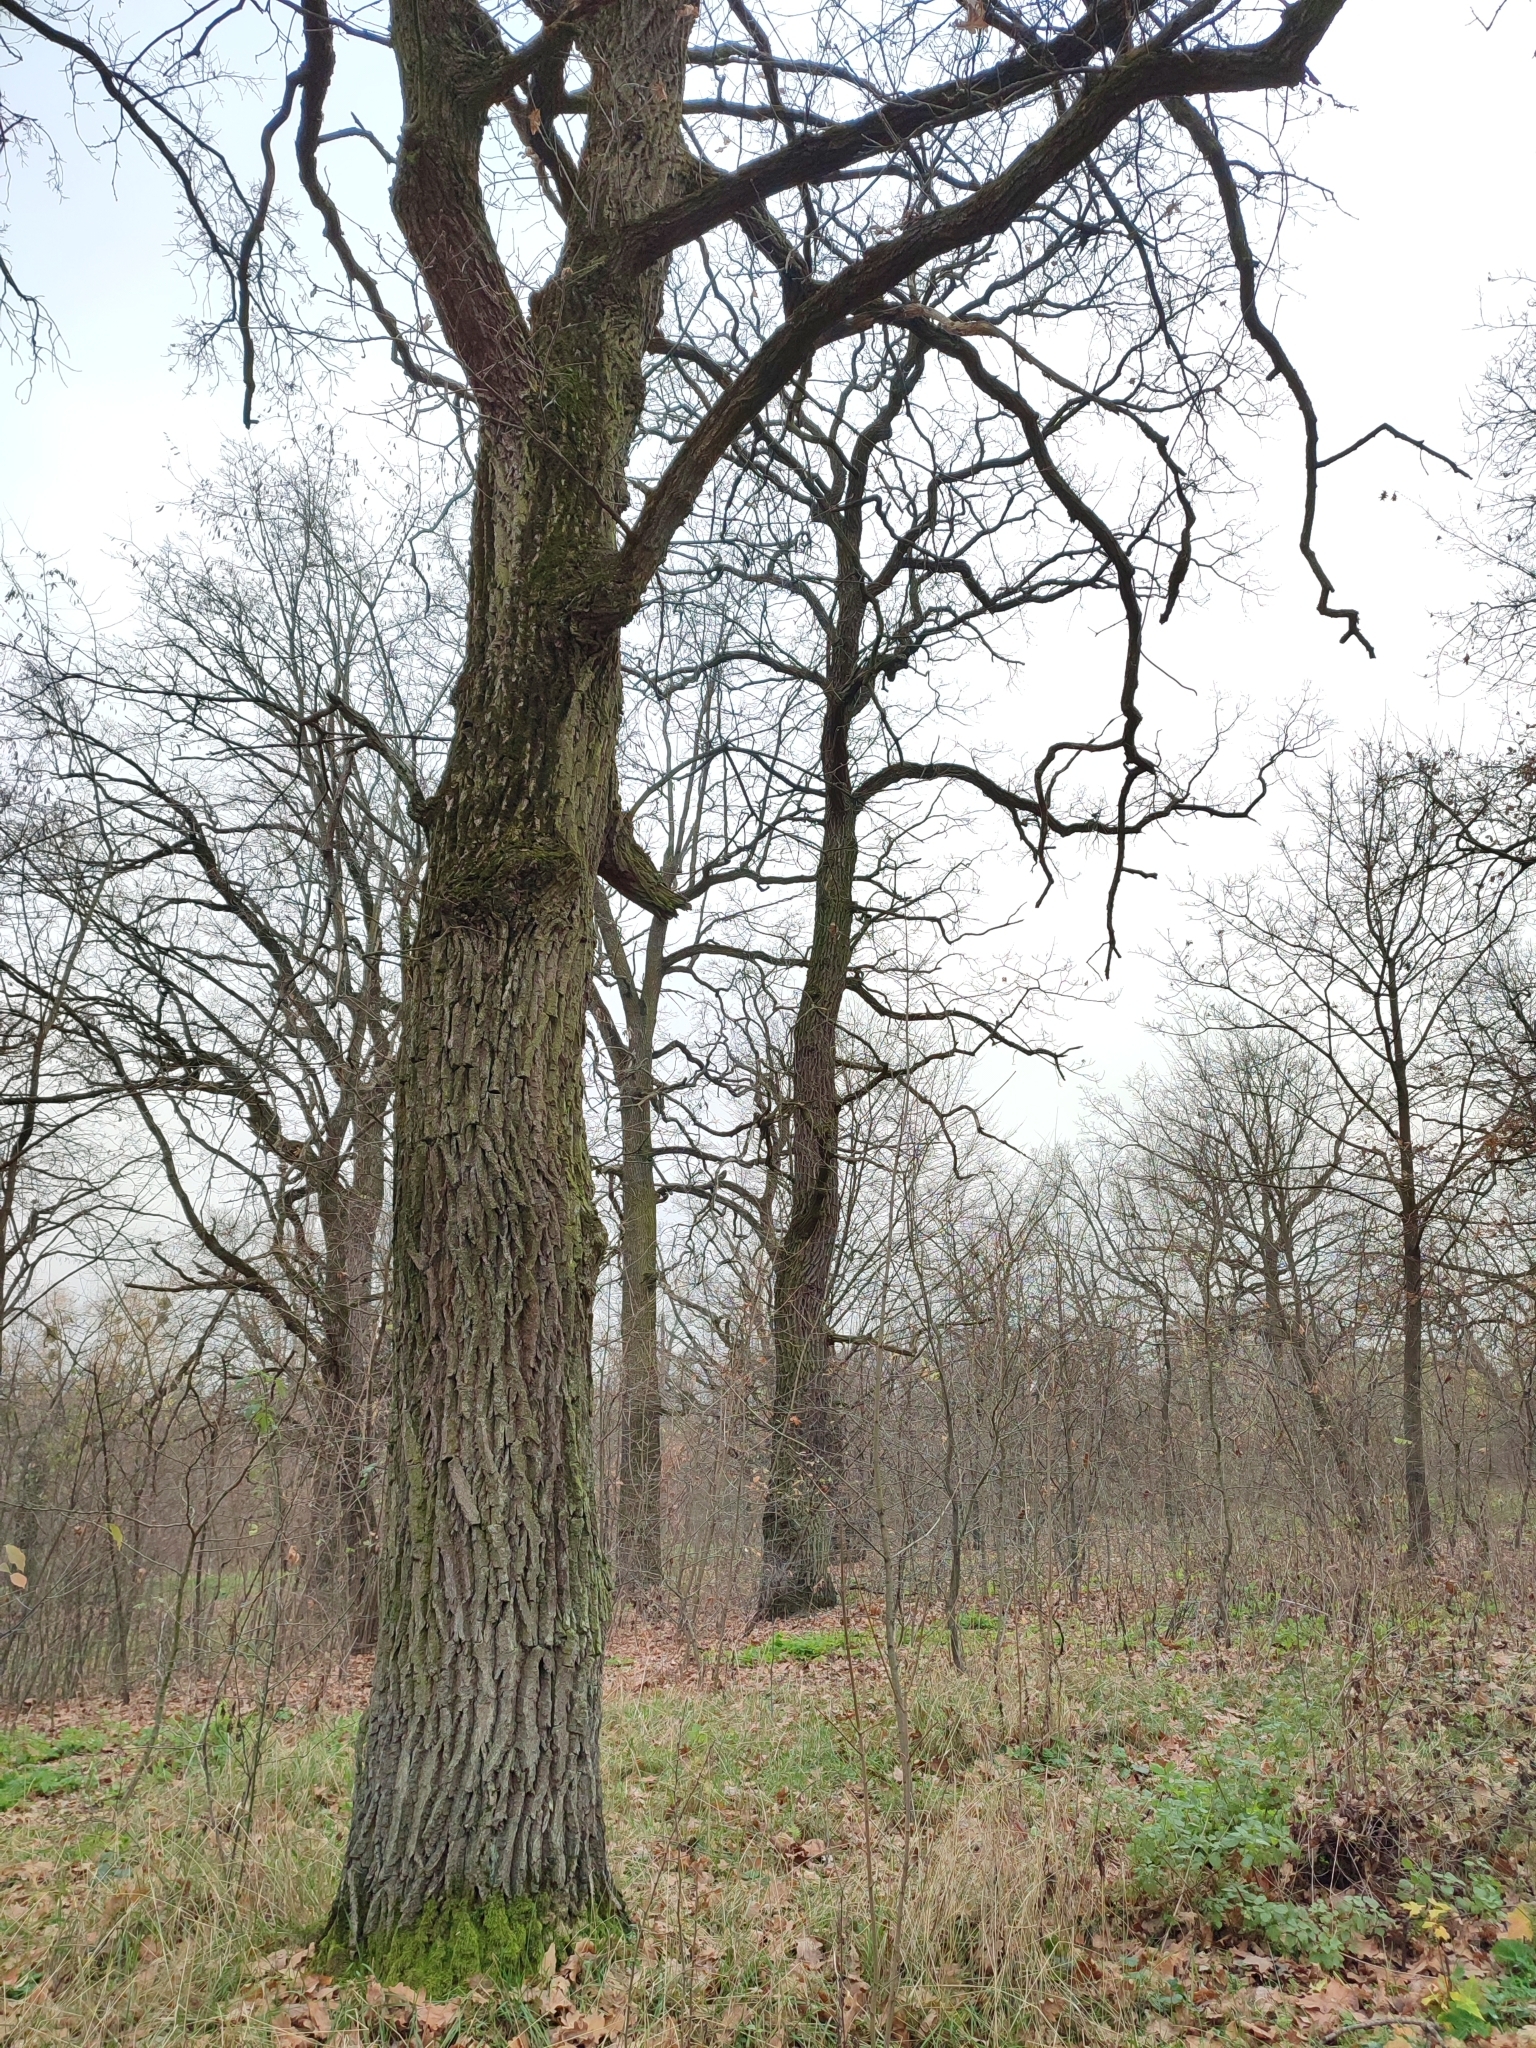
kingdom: Plantae
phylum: Tracheophyta
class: Magnoliopsida
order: Fagales
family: Fagaceae
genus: Quercus
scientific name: Quercus robur
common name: Pedunculate oak
